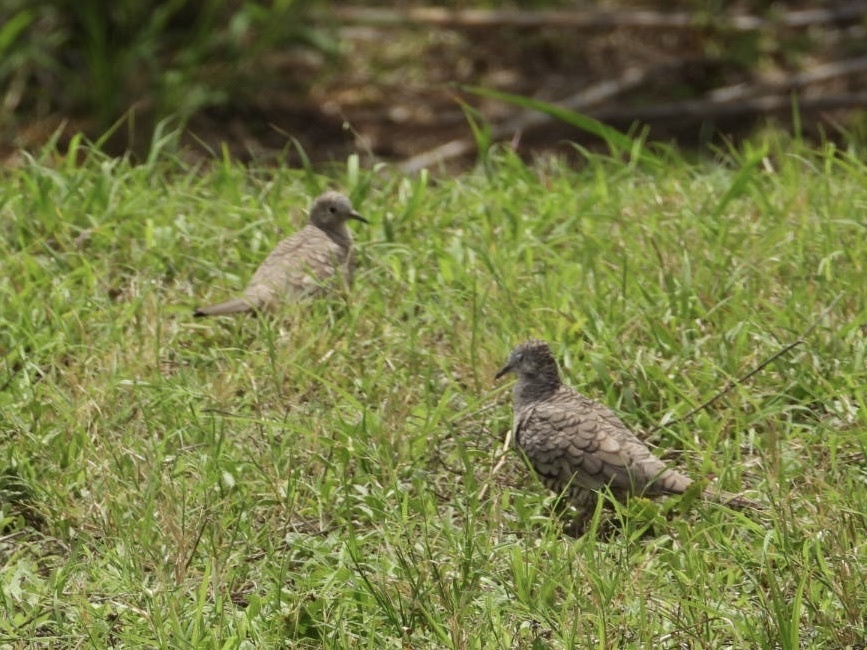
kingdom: Animalia
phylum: Chordata
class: Aves
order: Columbiformes
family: Columbidae
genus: Columbina
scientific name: Columbina inca
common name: Inca dove
